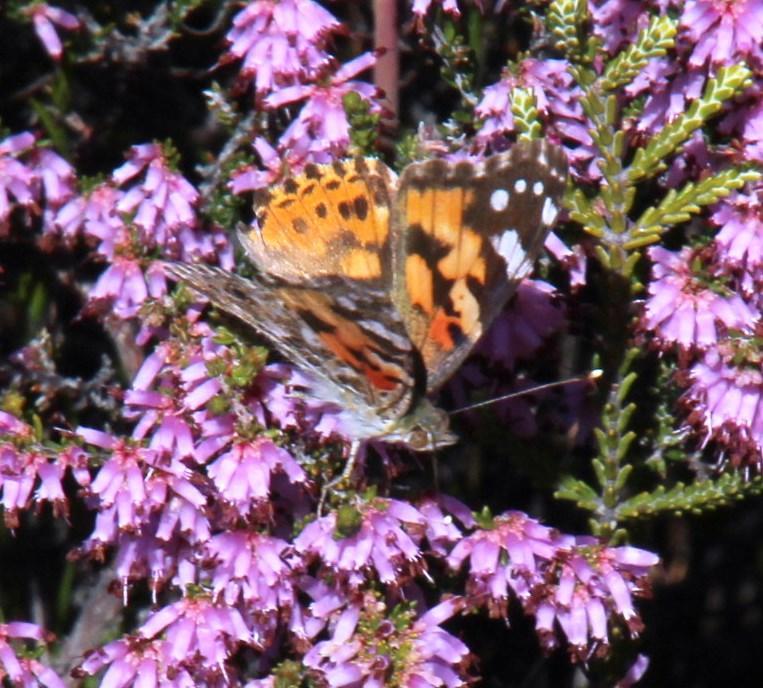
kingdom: Animalia
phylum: Arthropoda
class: Insecta
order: Lepidoptera
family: Nymphalidae
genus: Vanessa
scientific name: Vanessa cardui
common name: Painted lady
